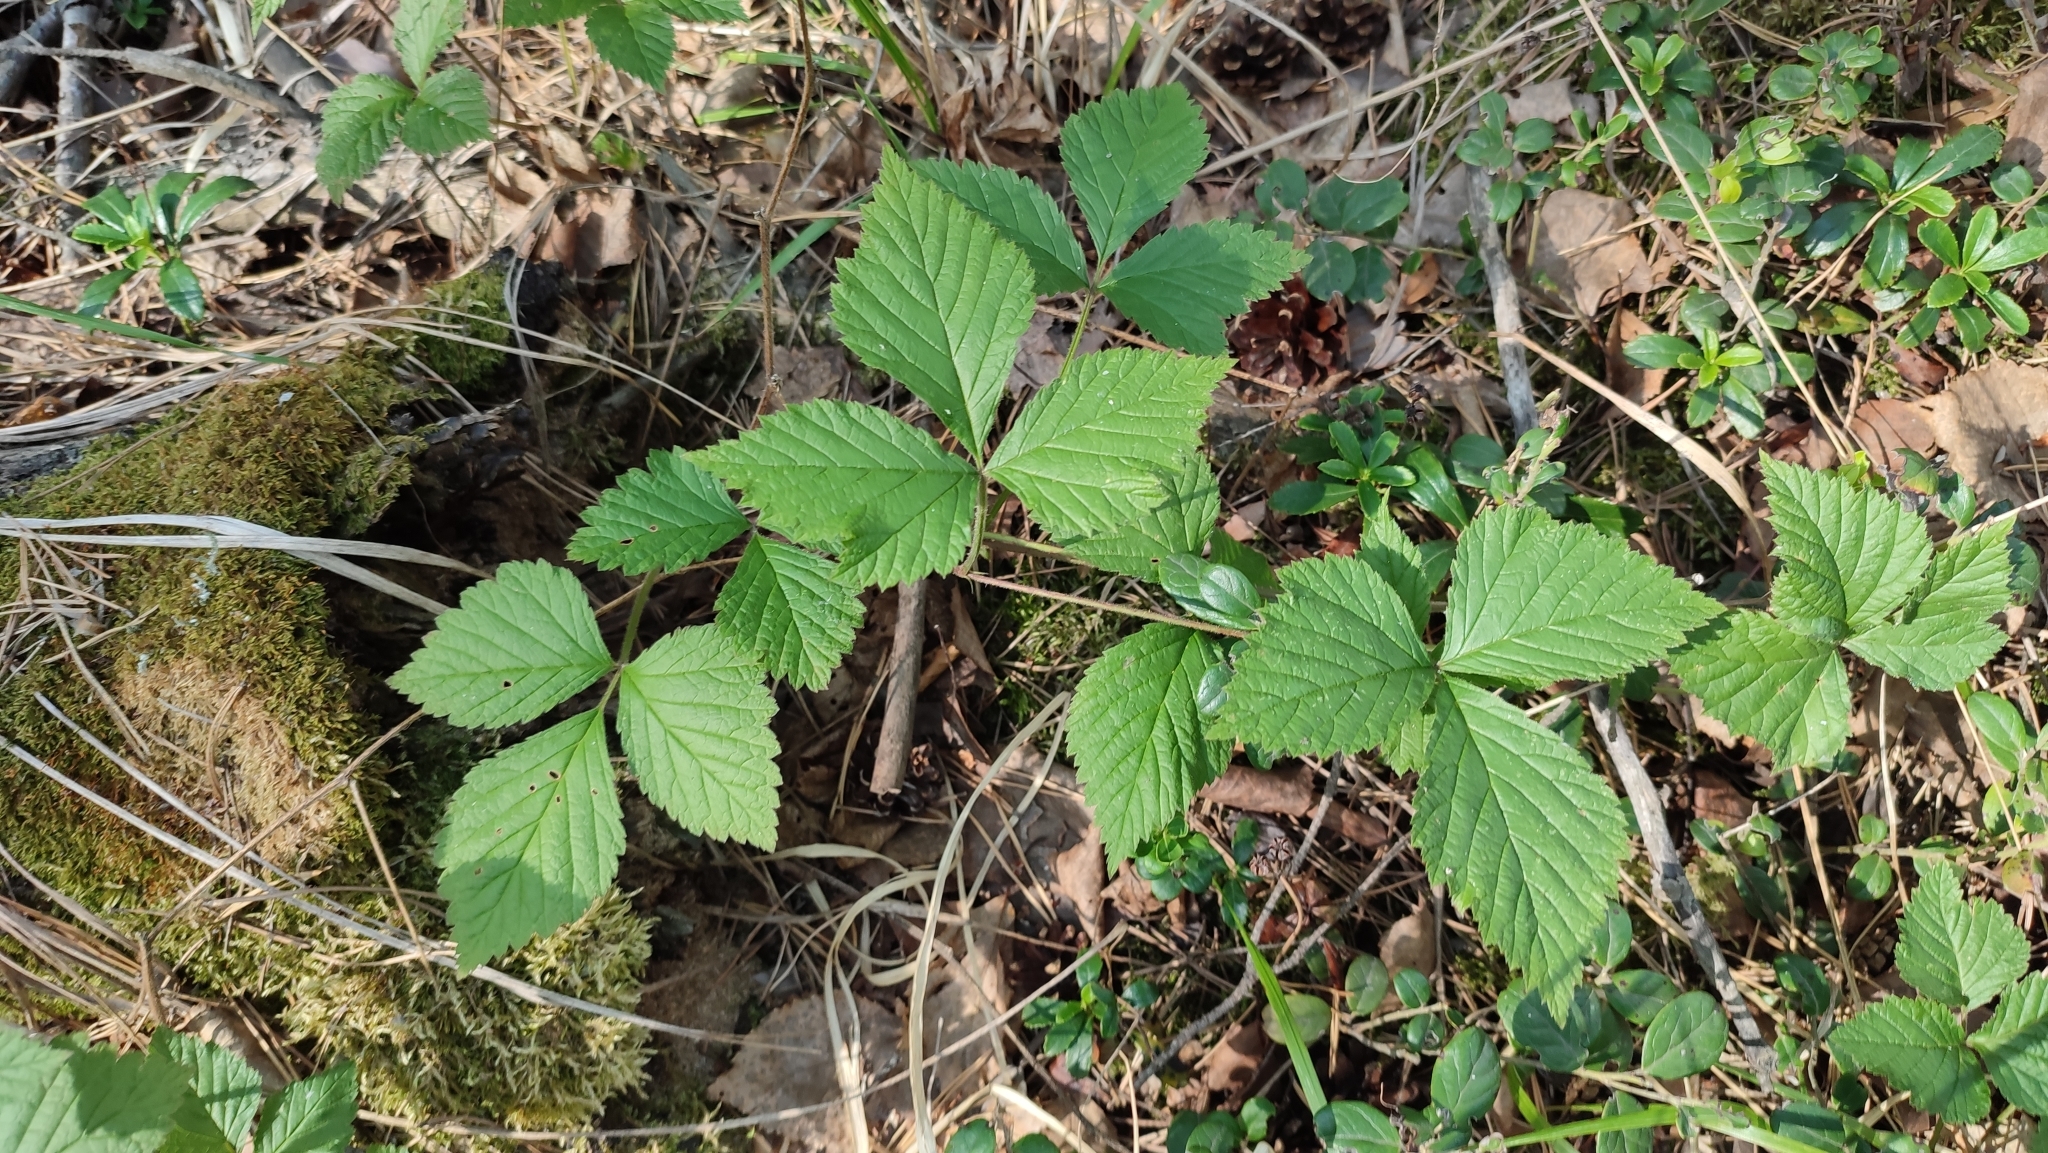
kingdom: Plantae
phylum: Tracheophyta
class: Magnoliopsida
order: Rosales
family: Rosaceae
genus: Rubus
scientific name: Rubus saxatilis
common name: Stone bramble
